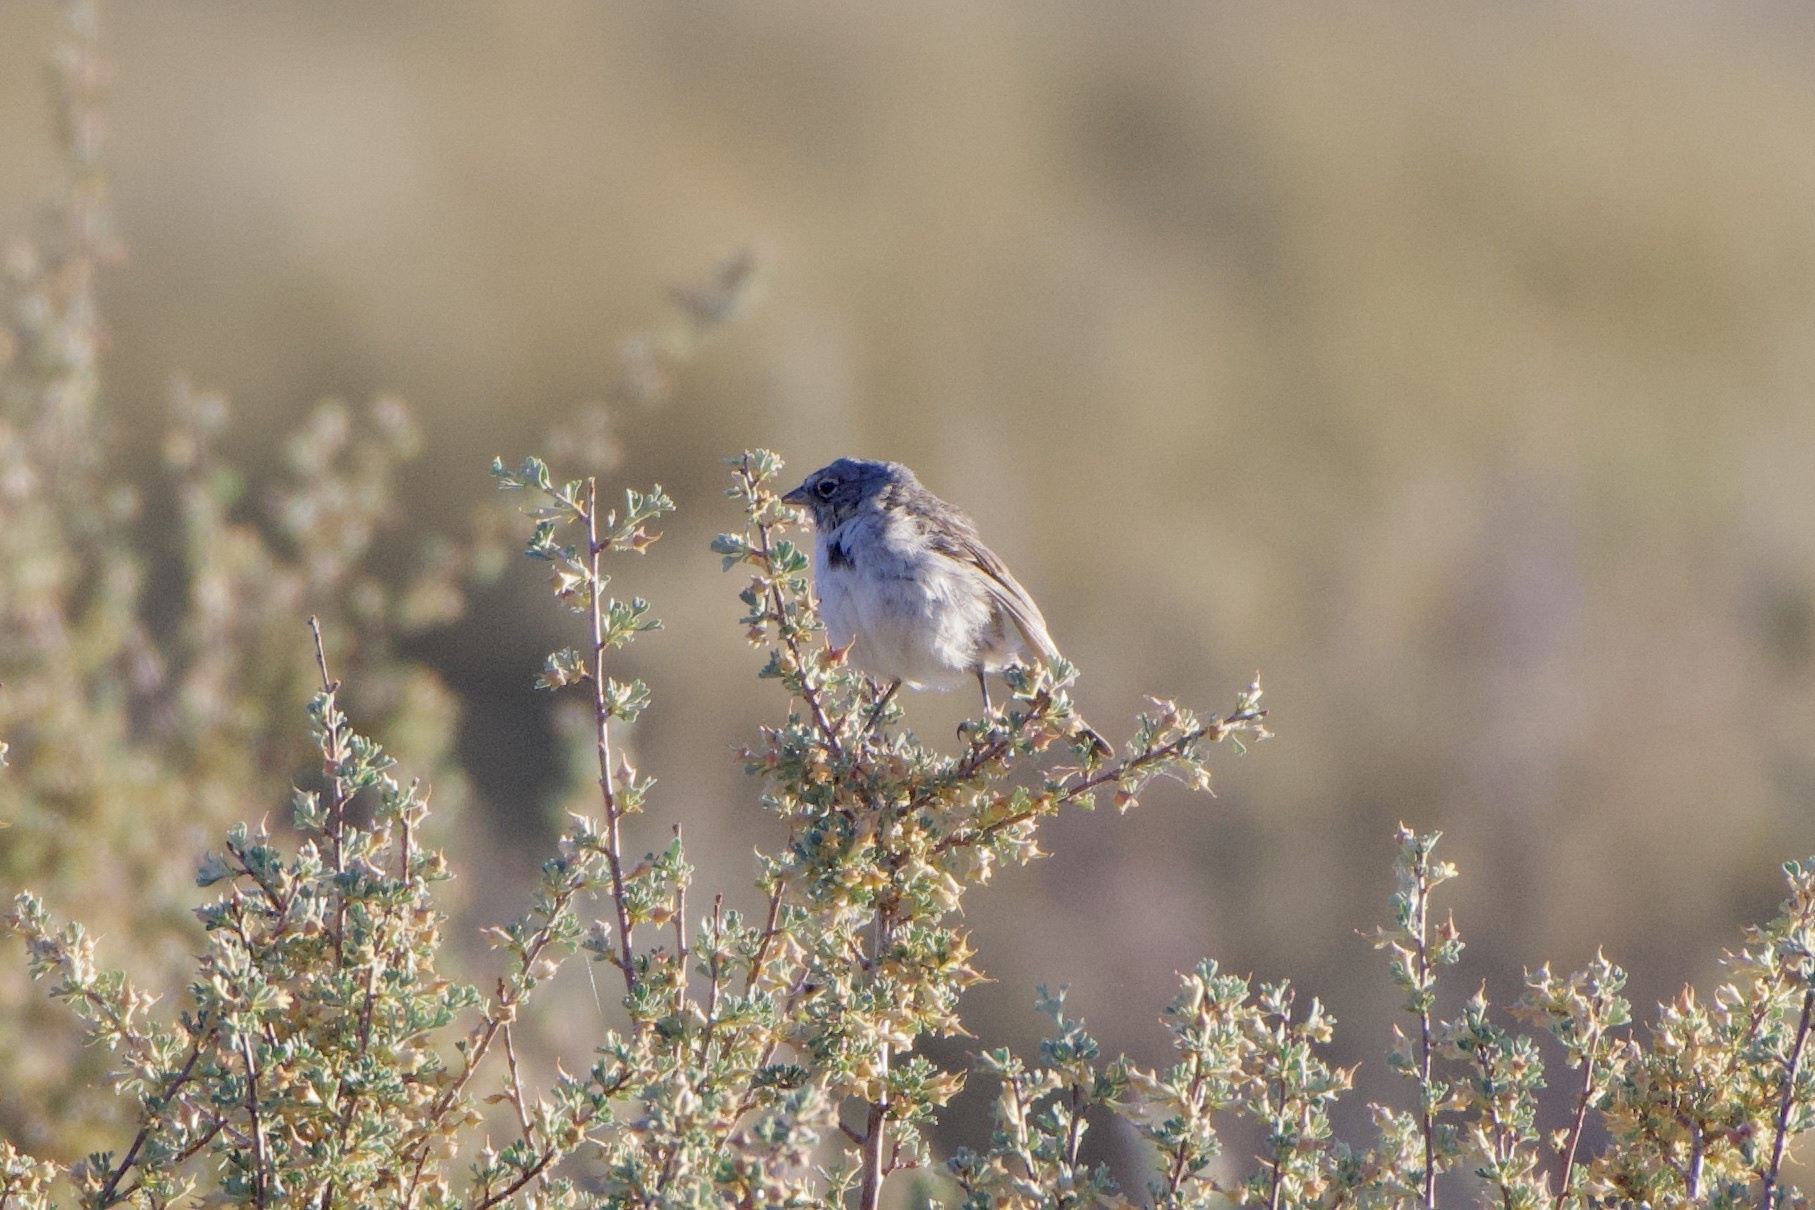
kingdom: Animalia
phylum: Chordata
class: Aves
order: Passeriformes
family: Passerellidae
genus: Artemisiospiza
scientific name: Artemisiospiza nevadensis
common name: Sagebrush sparrow
